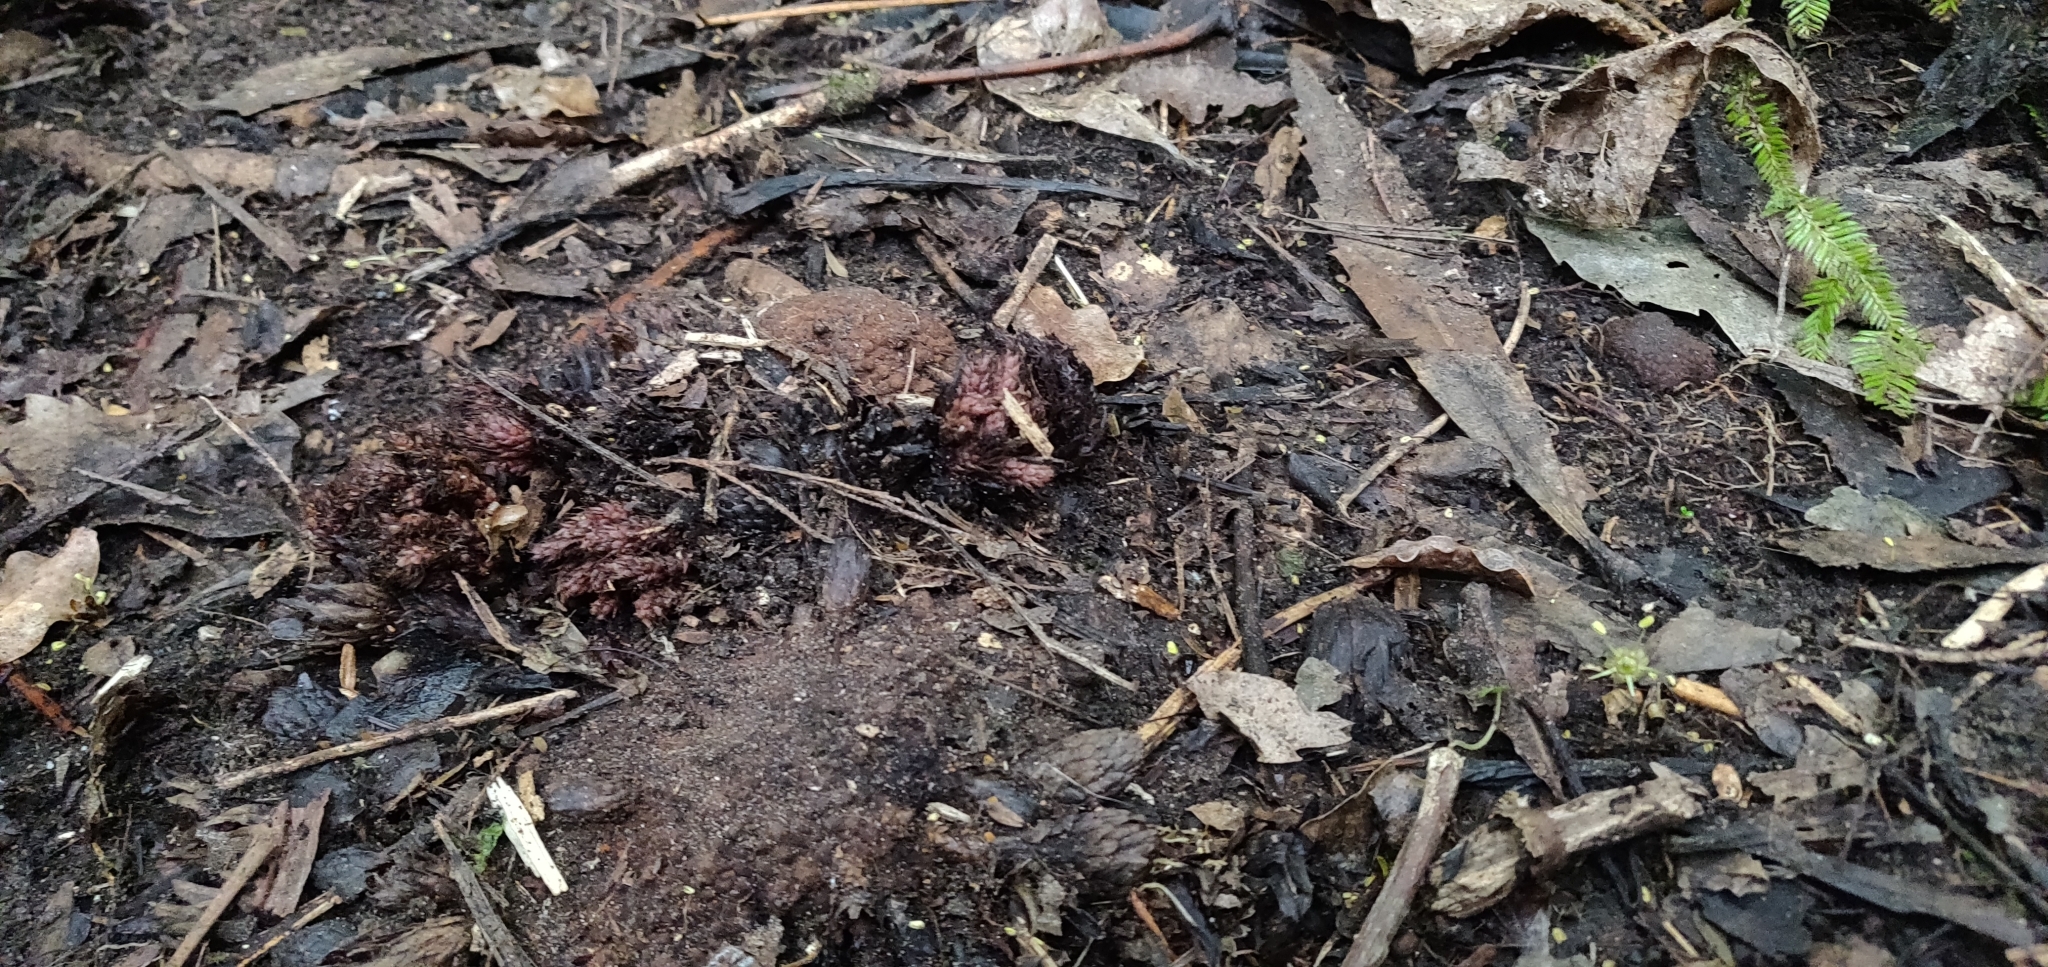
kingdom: Plantae
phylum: Tracheophyta
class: Magnoliopsida
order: Santalales
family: Mystropetalaceae
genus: Dactylanthus
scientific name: Dactylanthus taylorii
